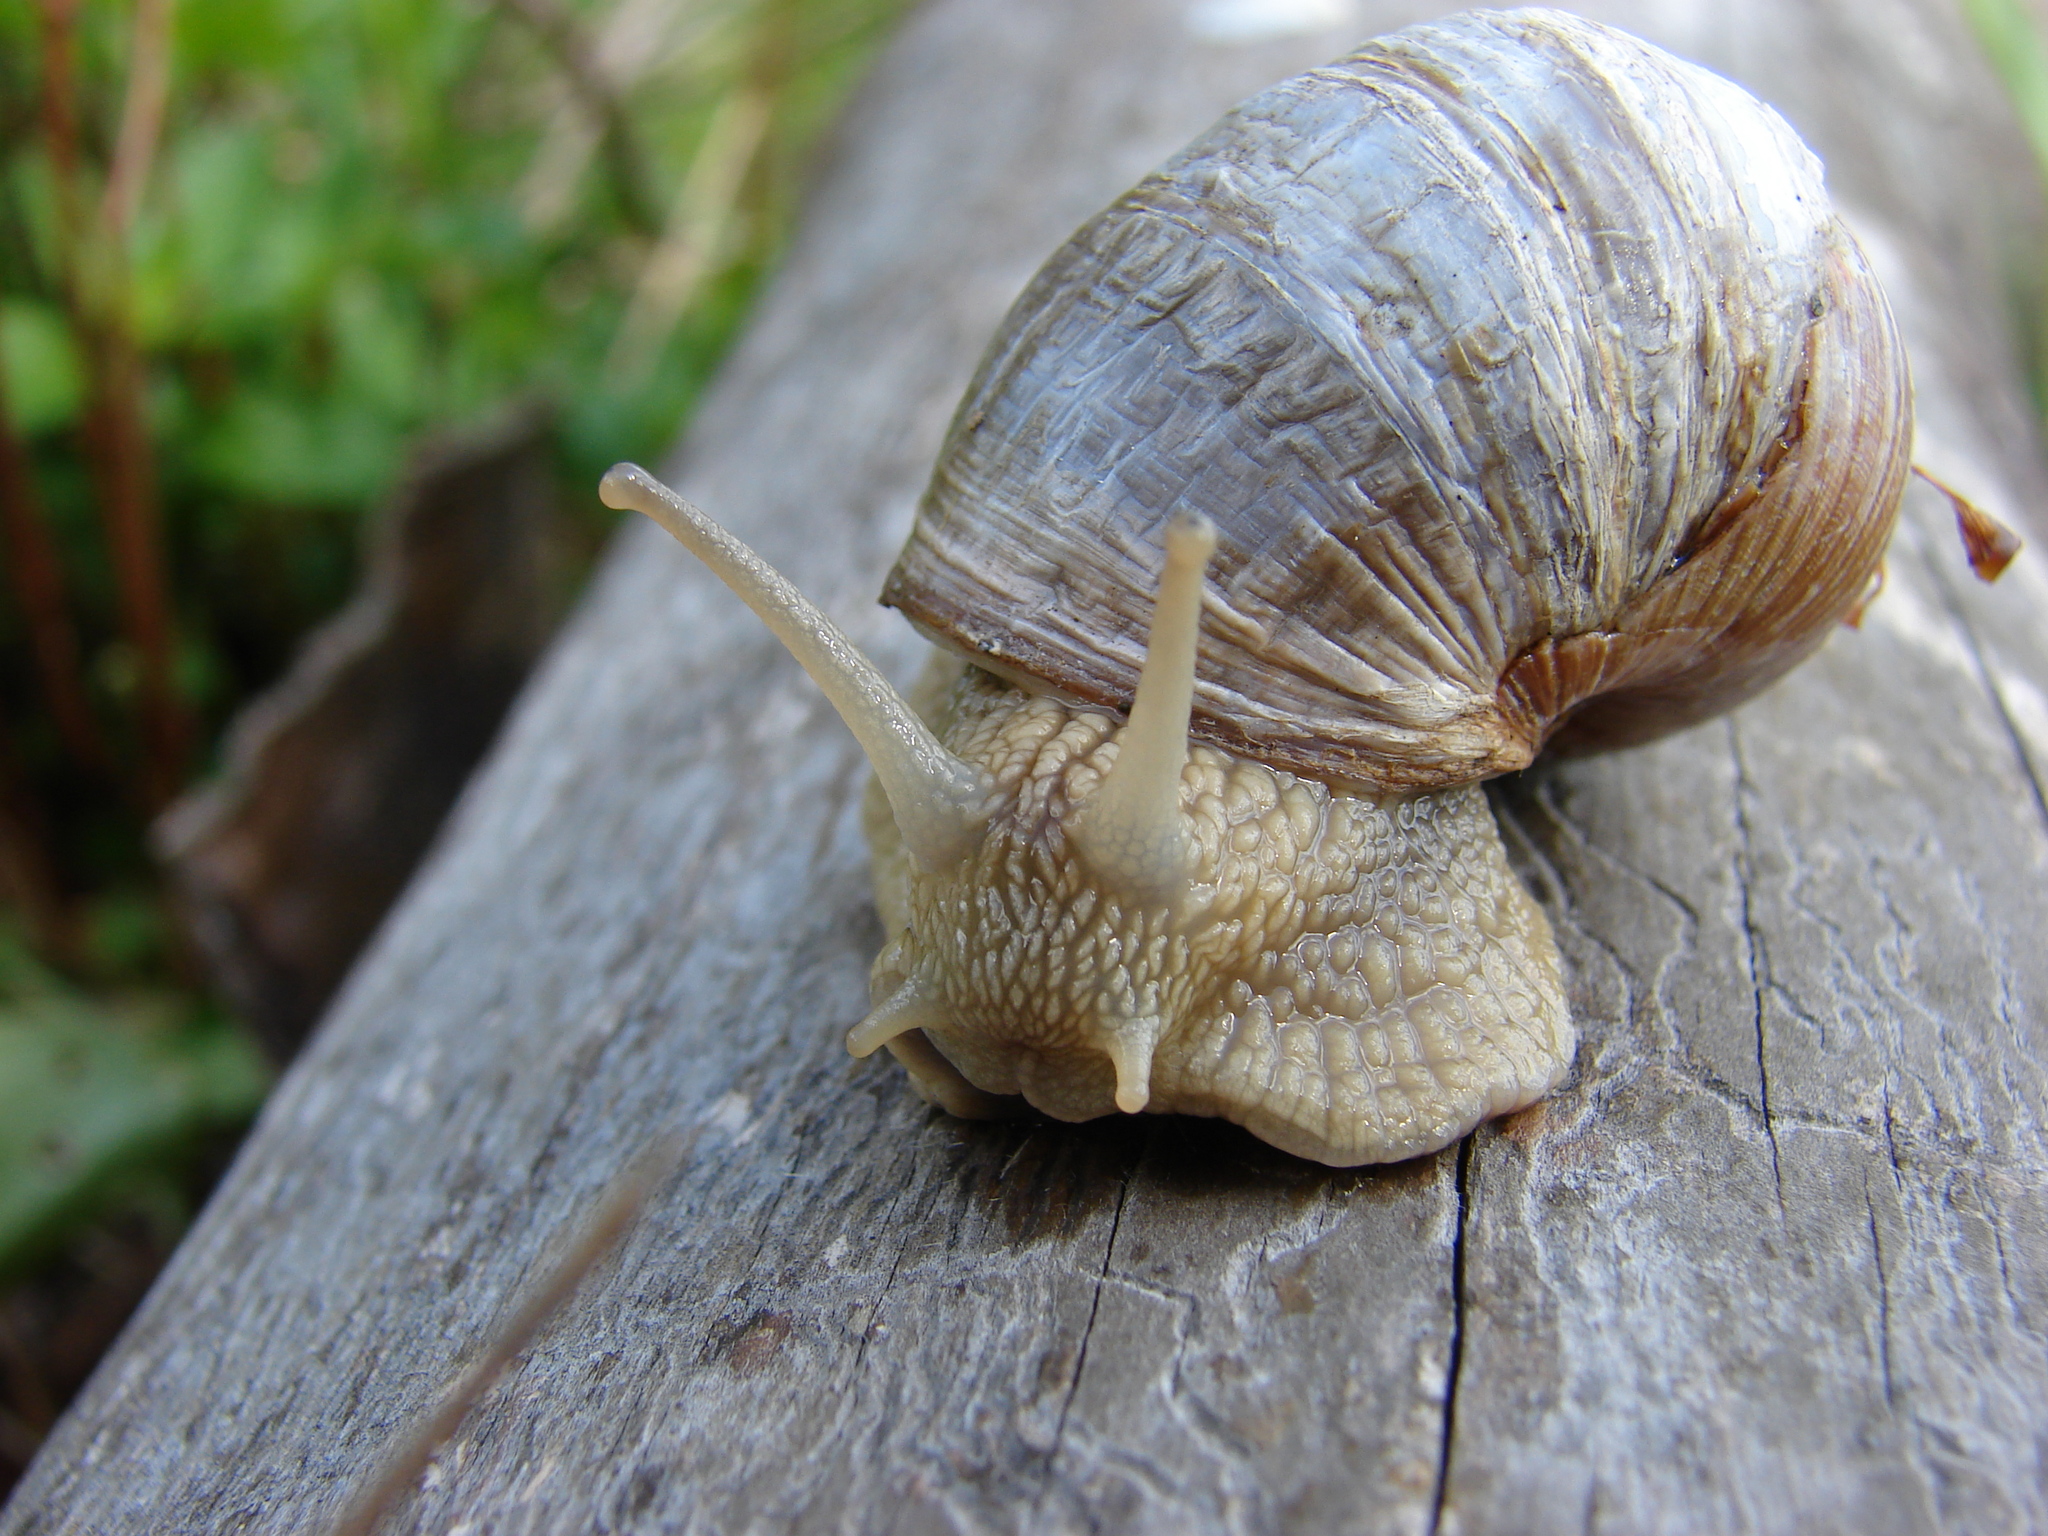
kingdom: Animalia
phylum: Mollusca
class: Gastropoda
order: Stylommatophora
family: Helicidae
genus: Helix
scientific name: Helix pomatia
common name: Roman snail
